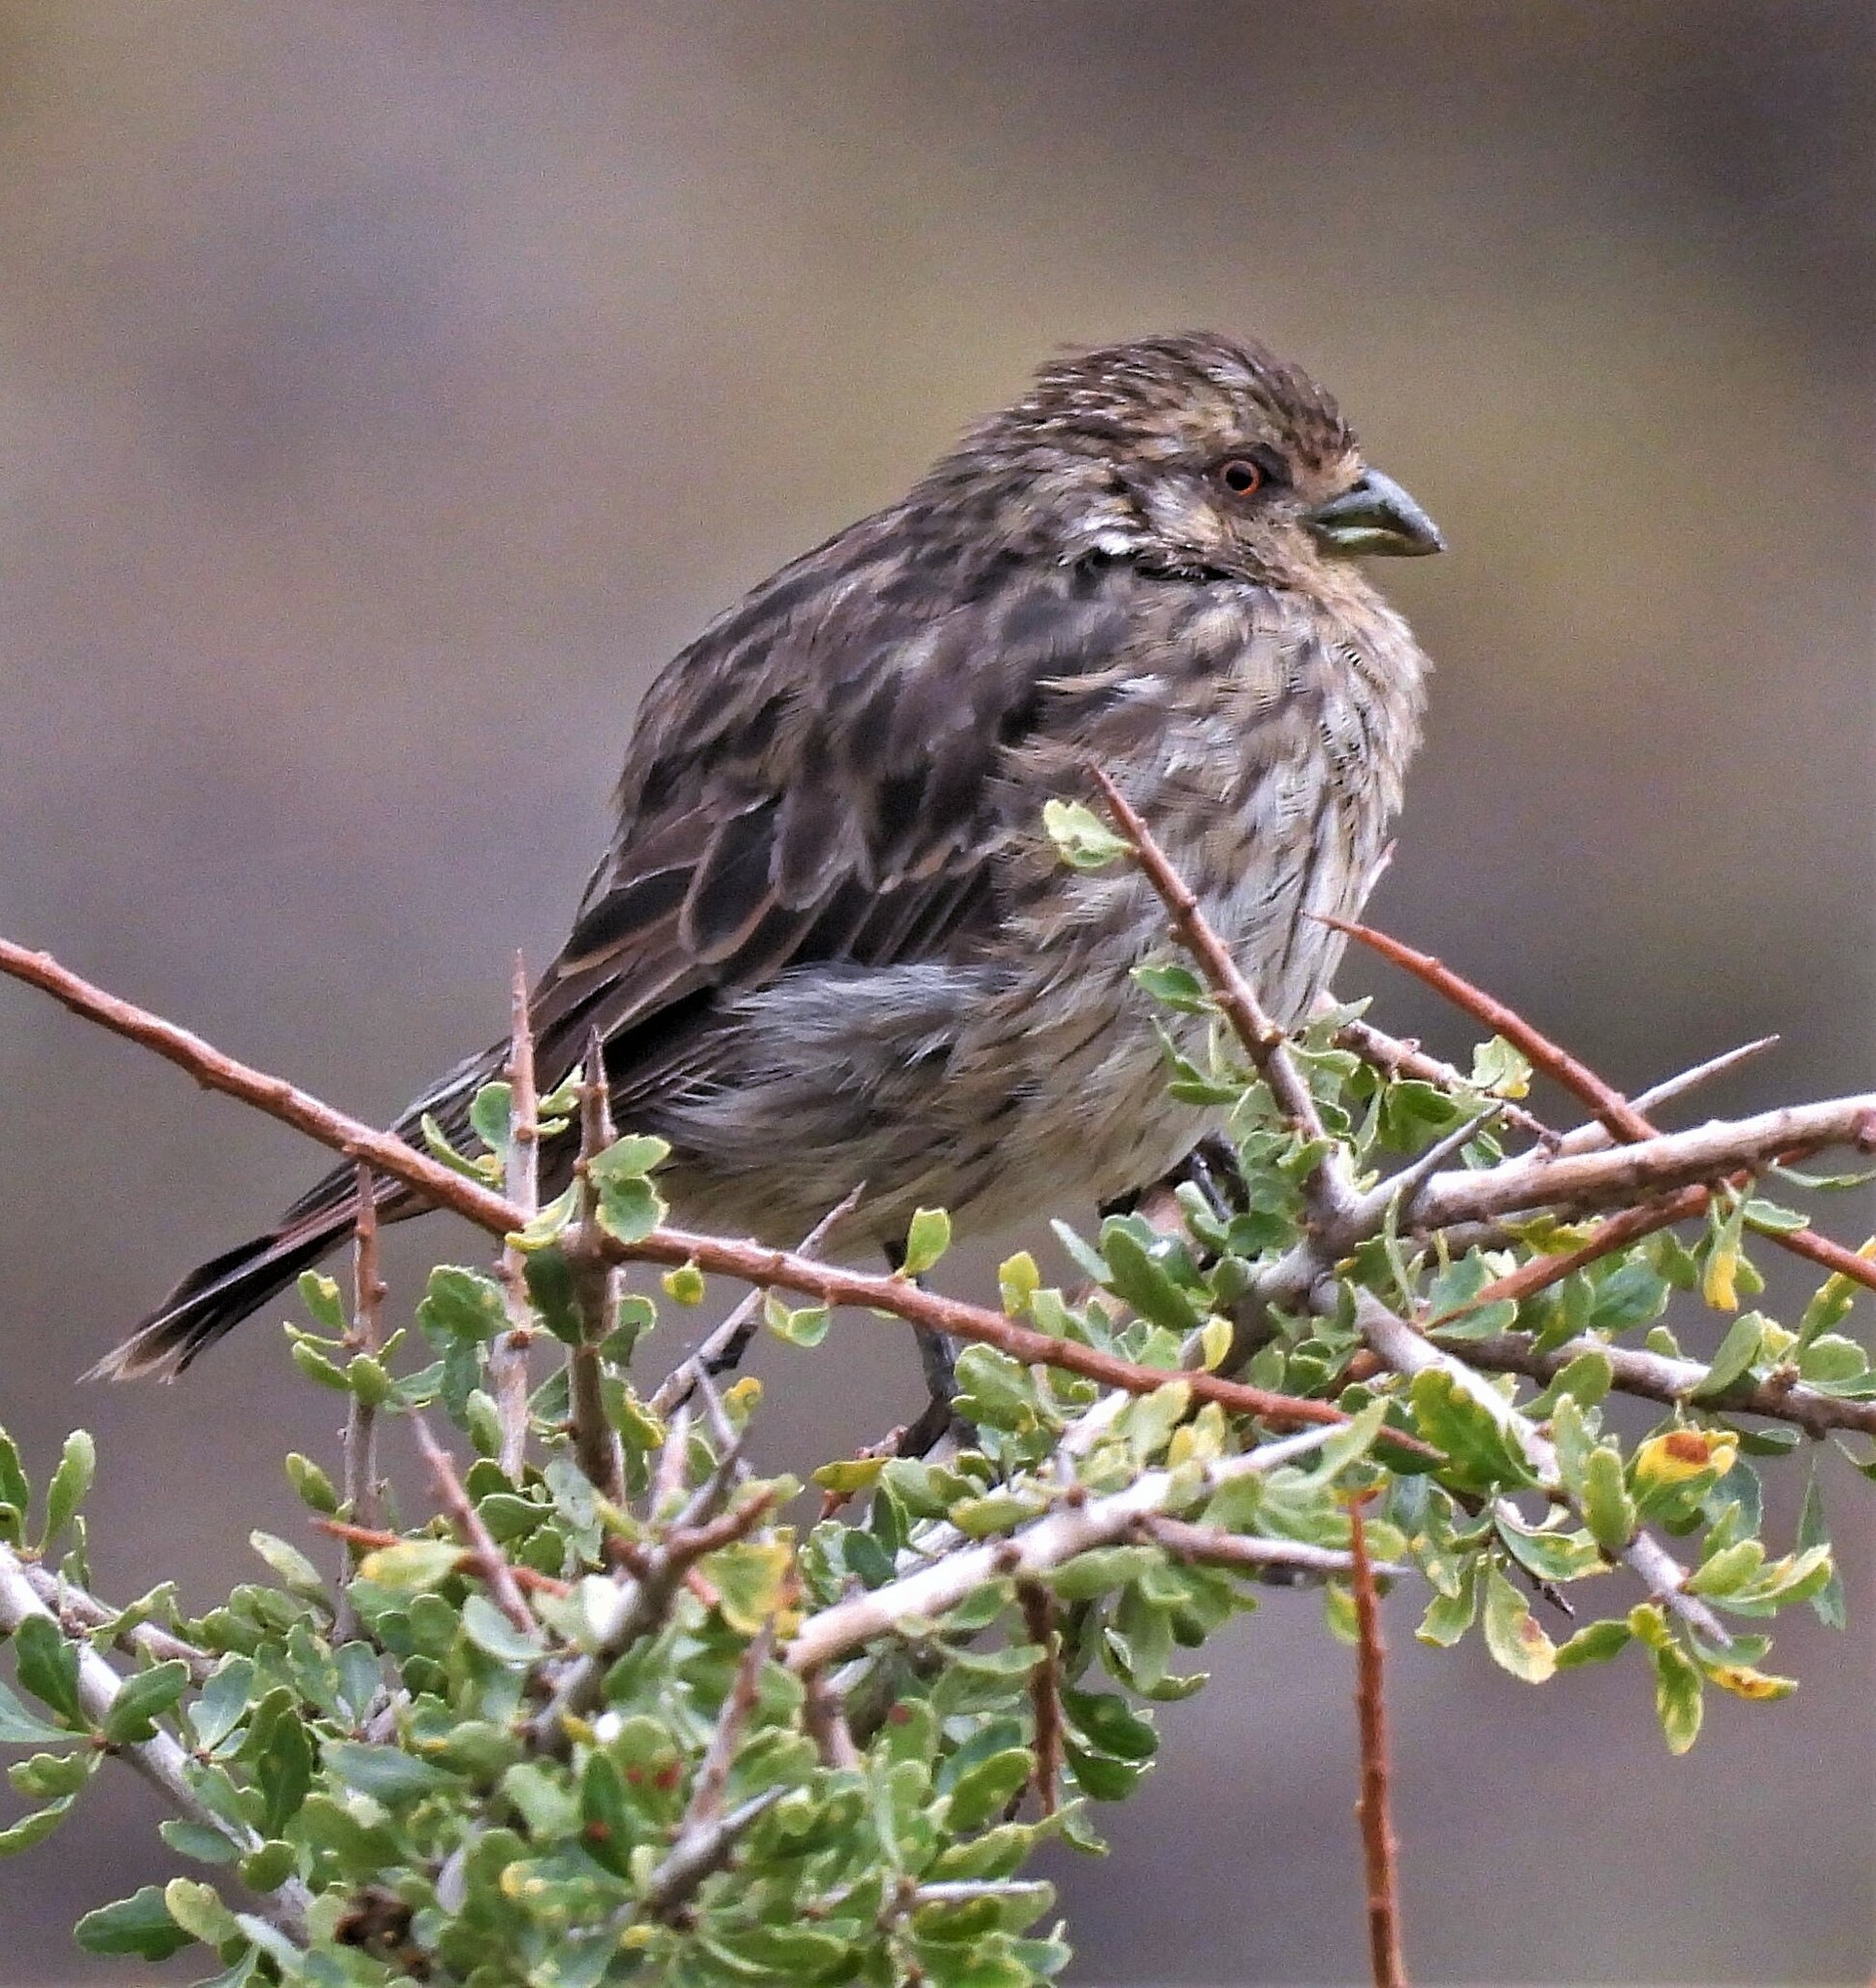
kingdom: Animalia
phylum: Chordata
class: Aves
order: Passeriformes
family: Cotingidae
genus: Phytotoma
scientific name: Phytotoma rutila
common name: White-tipped plantcutter
